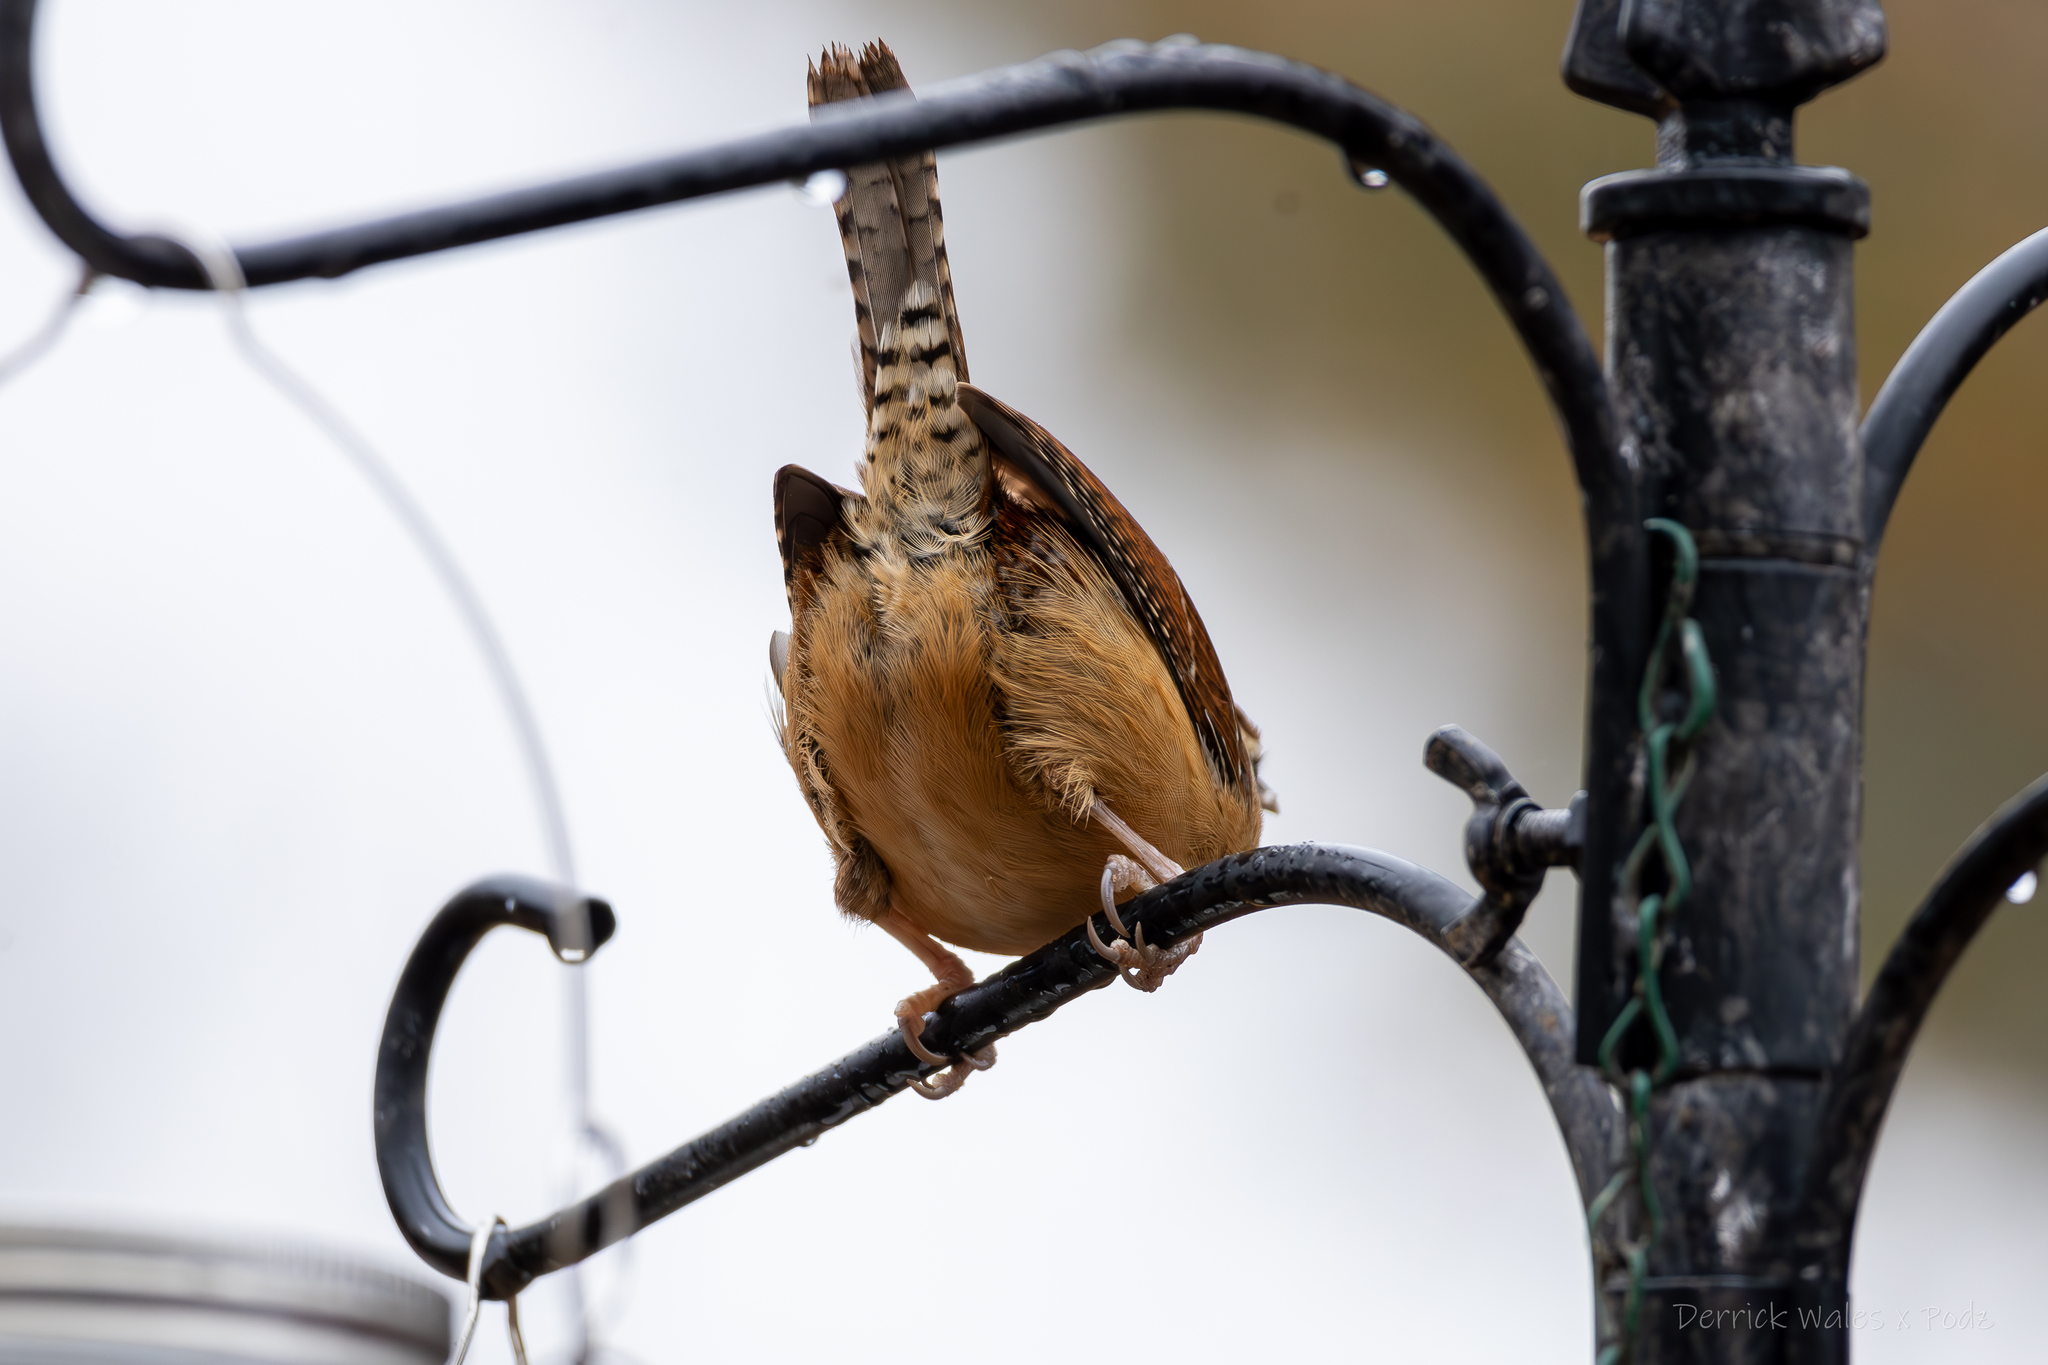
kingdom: Animalia
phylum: Chordata
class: Aves
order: Passeriformes
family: Troglodytidae
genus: Thryothorus
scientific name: Thryothorus ludovicianus
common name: Carolina wren
